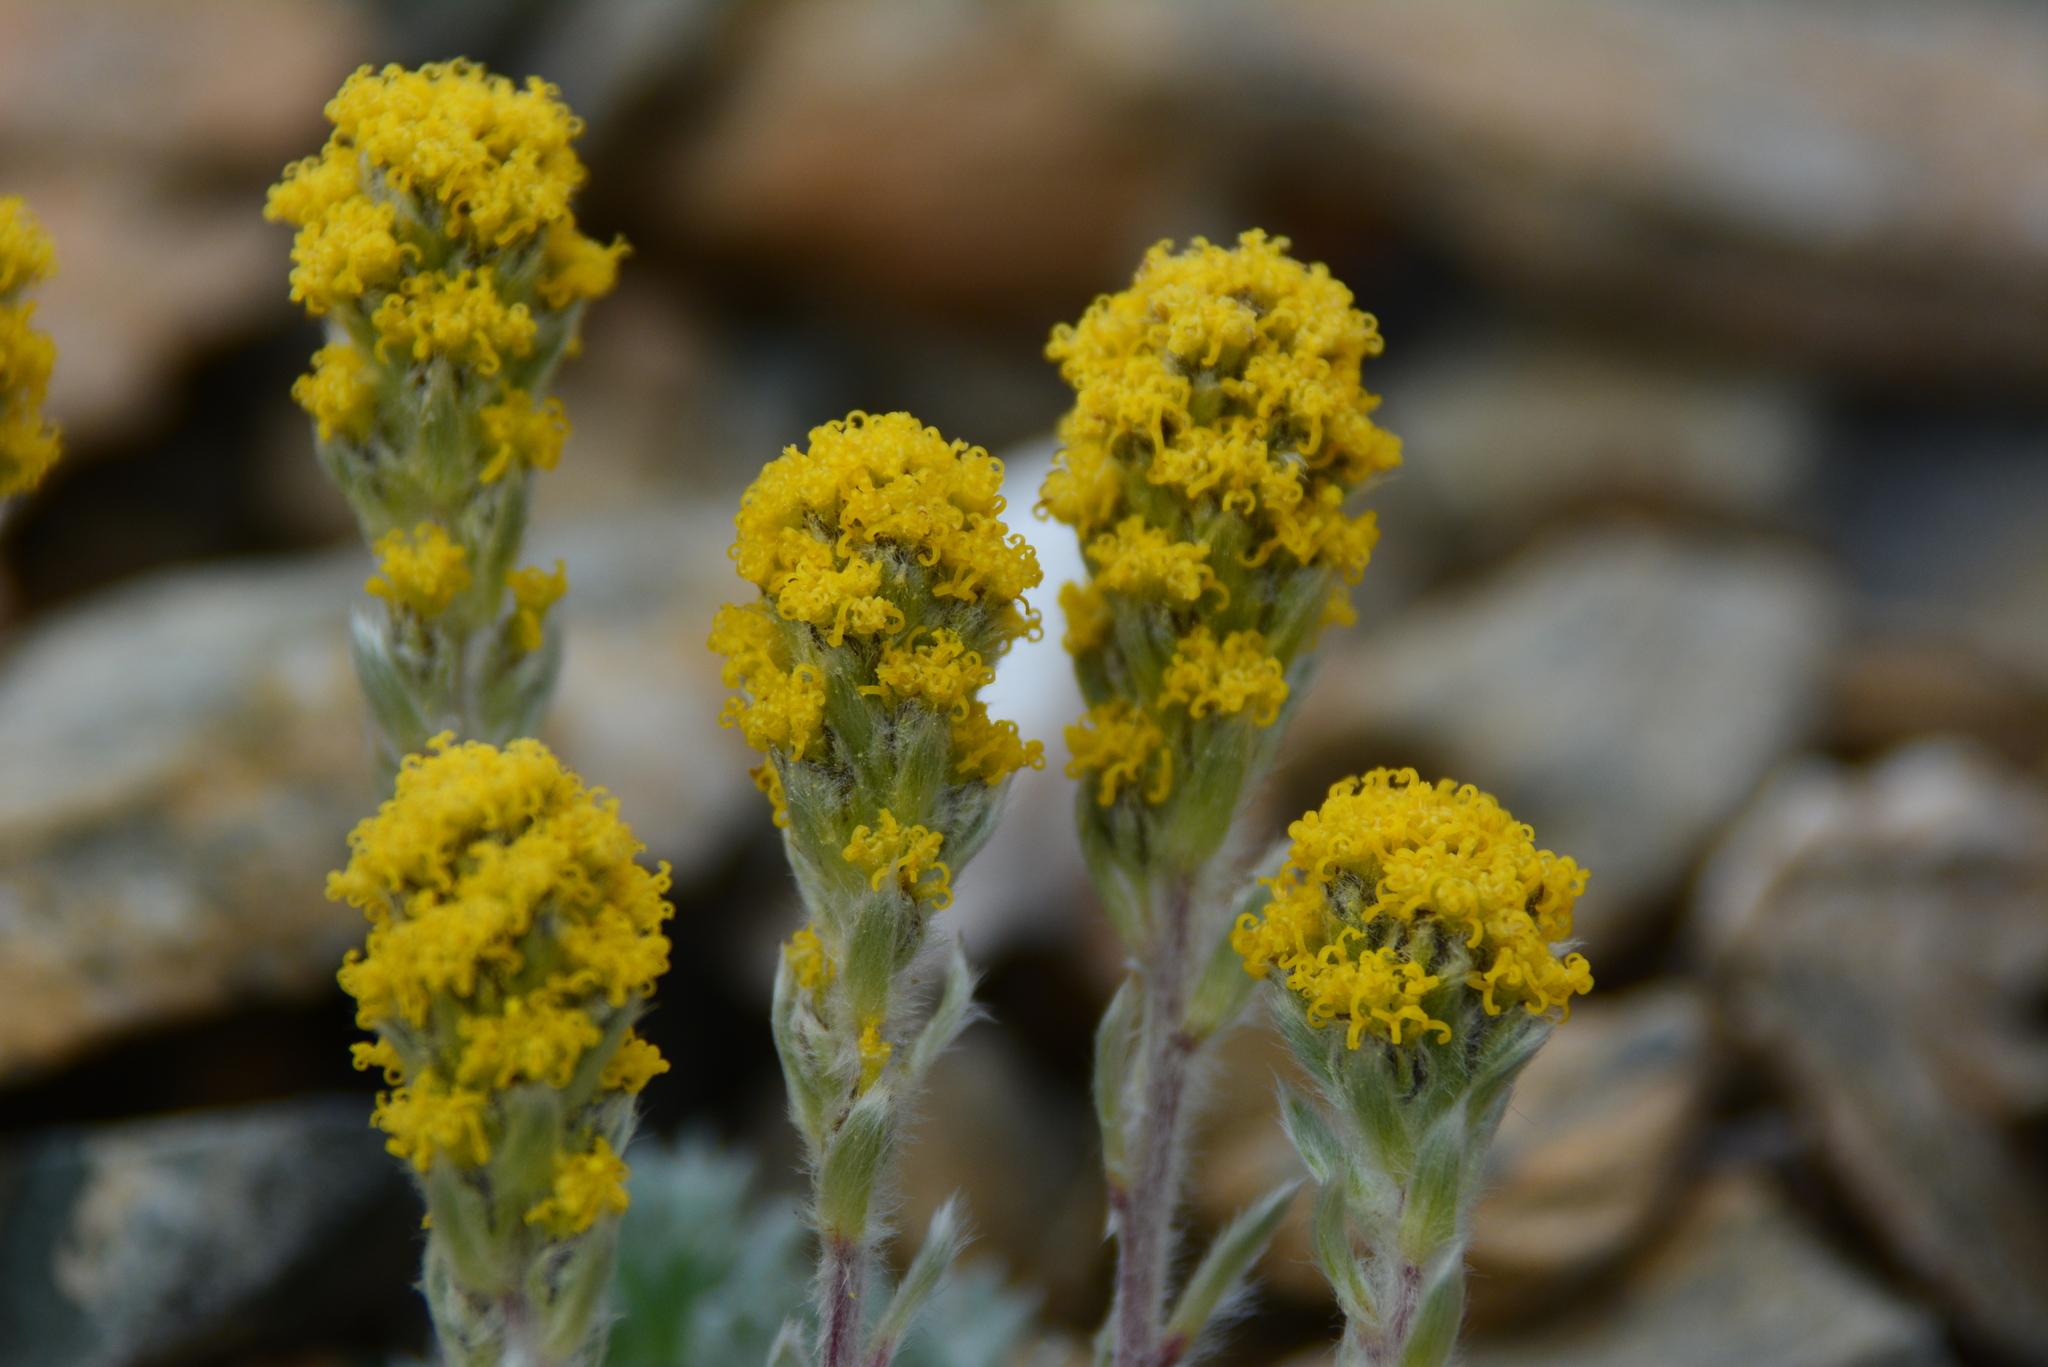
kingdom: Plantae
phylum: Tracheophyta
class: Magnoliopsida
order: Asterales
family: Asteraceae
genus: Artemisia
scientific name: Artemisia senjavinensis
